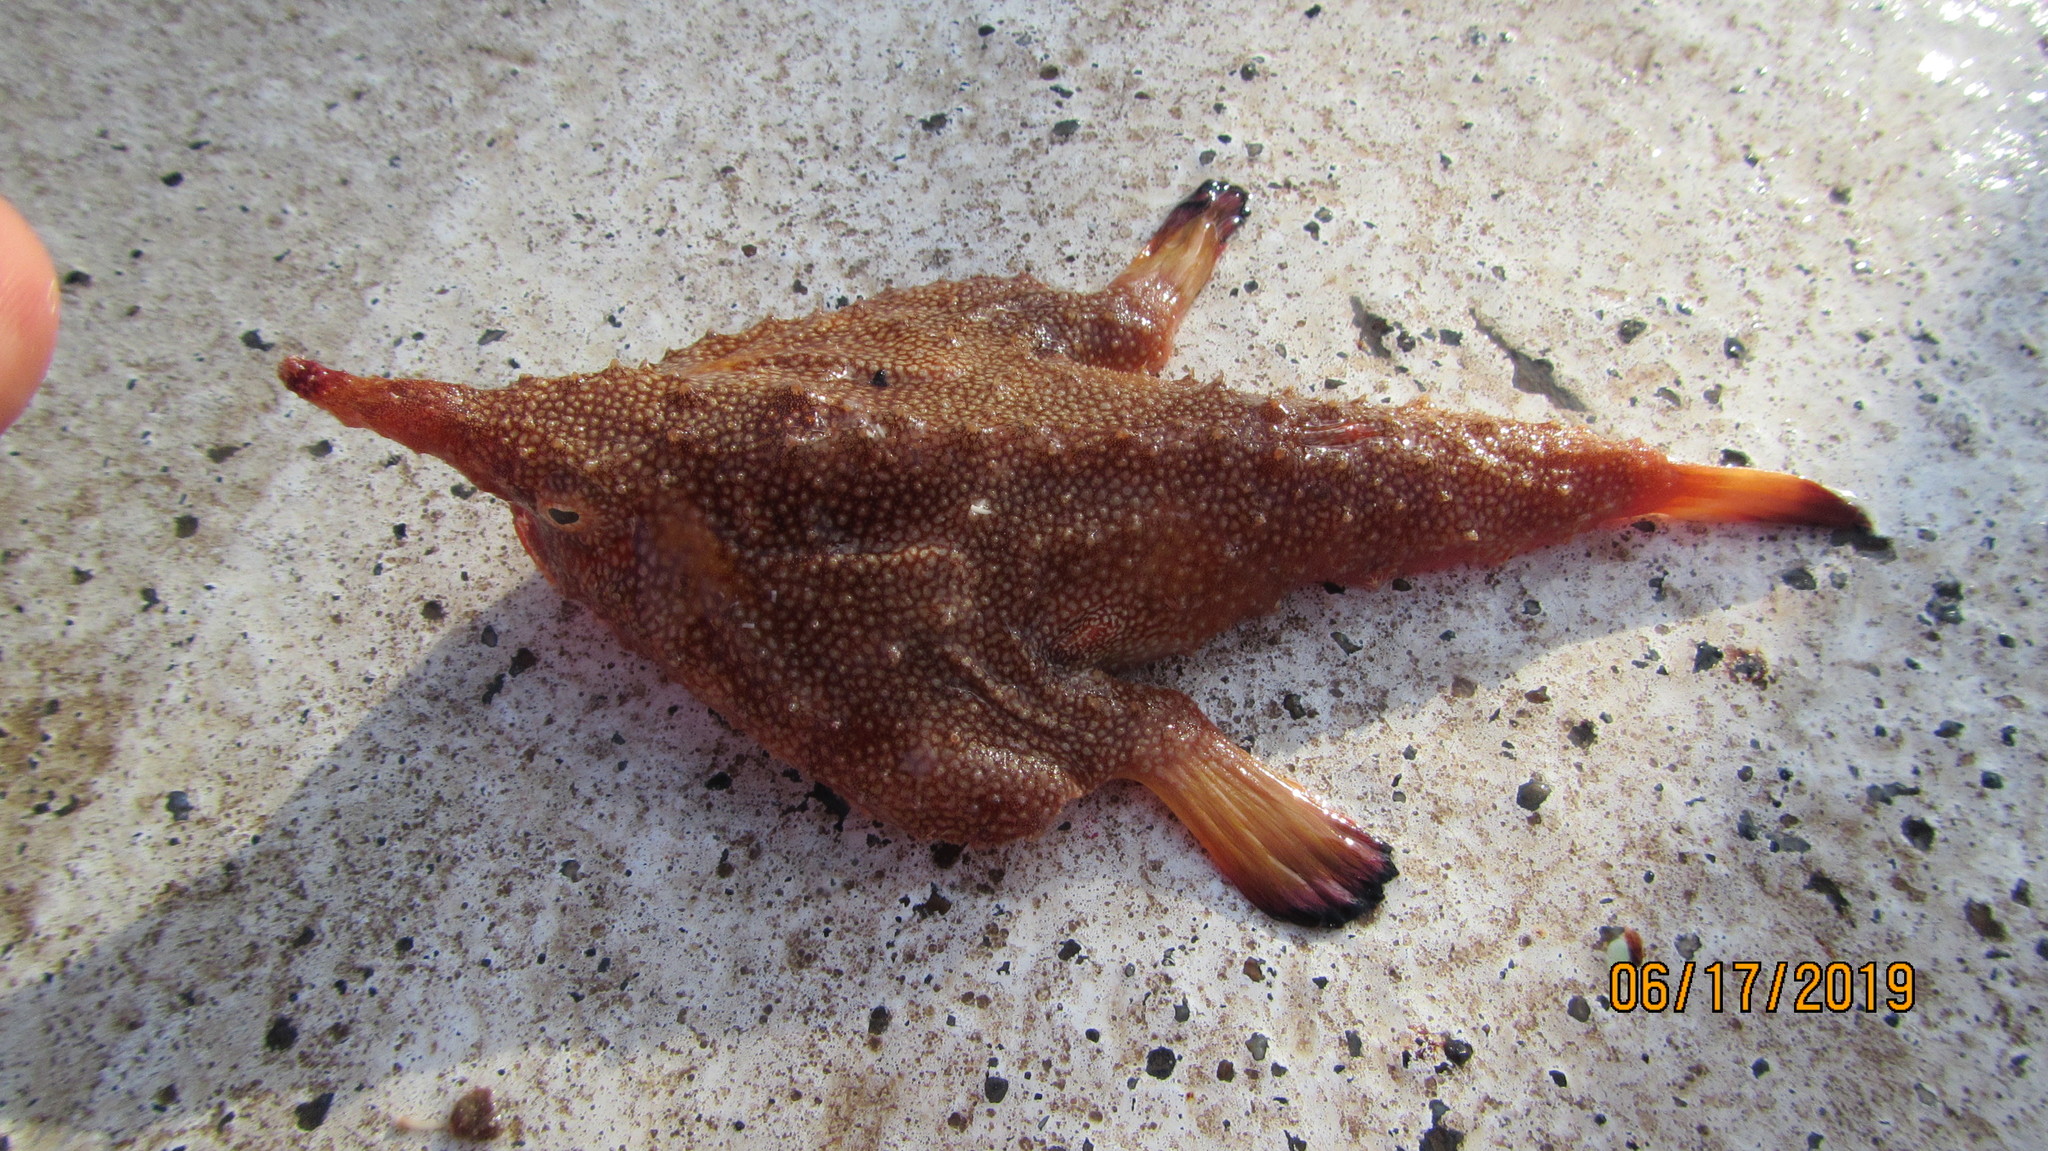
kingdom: Animalia
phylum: Chordata
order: Lophiiformes
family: Ogcocephalidae
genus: Ogcocephalus
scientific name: Ogcocephalus corniger
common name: Longnose batfish
